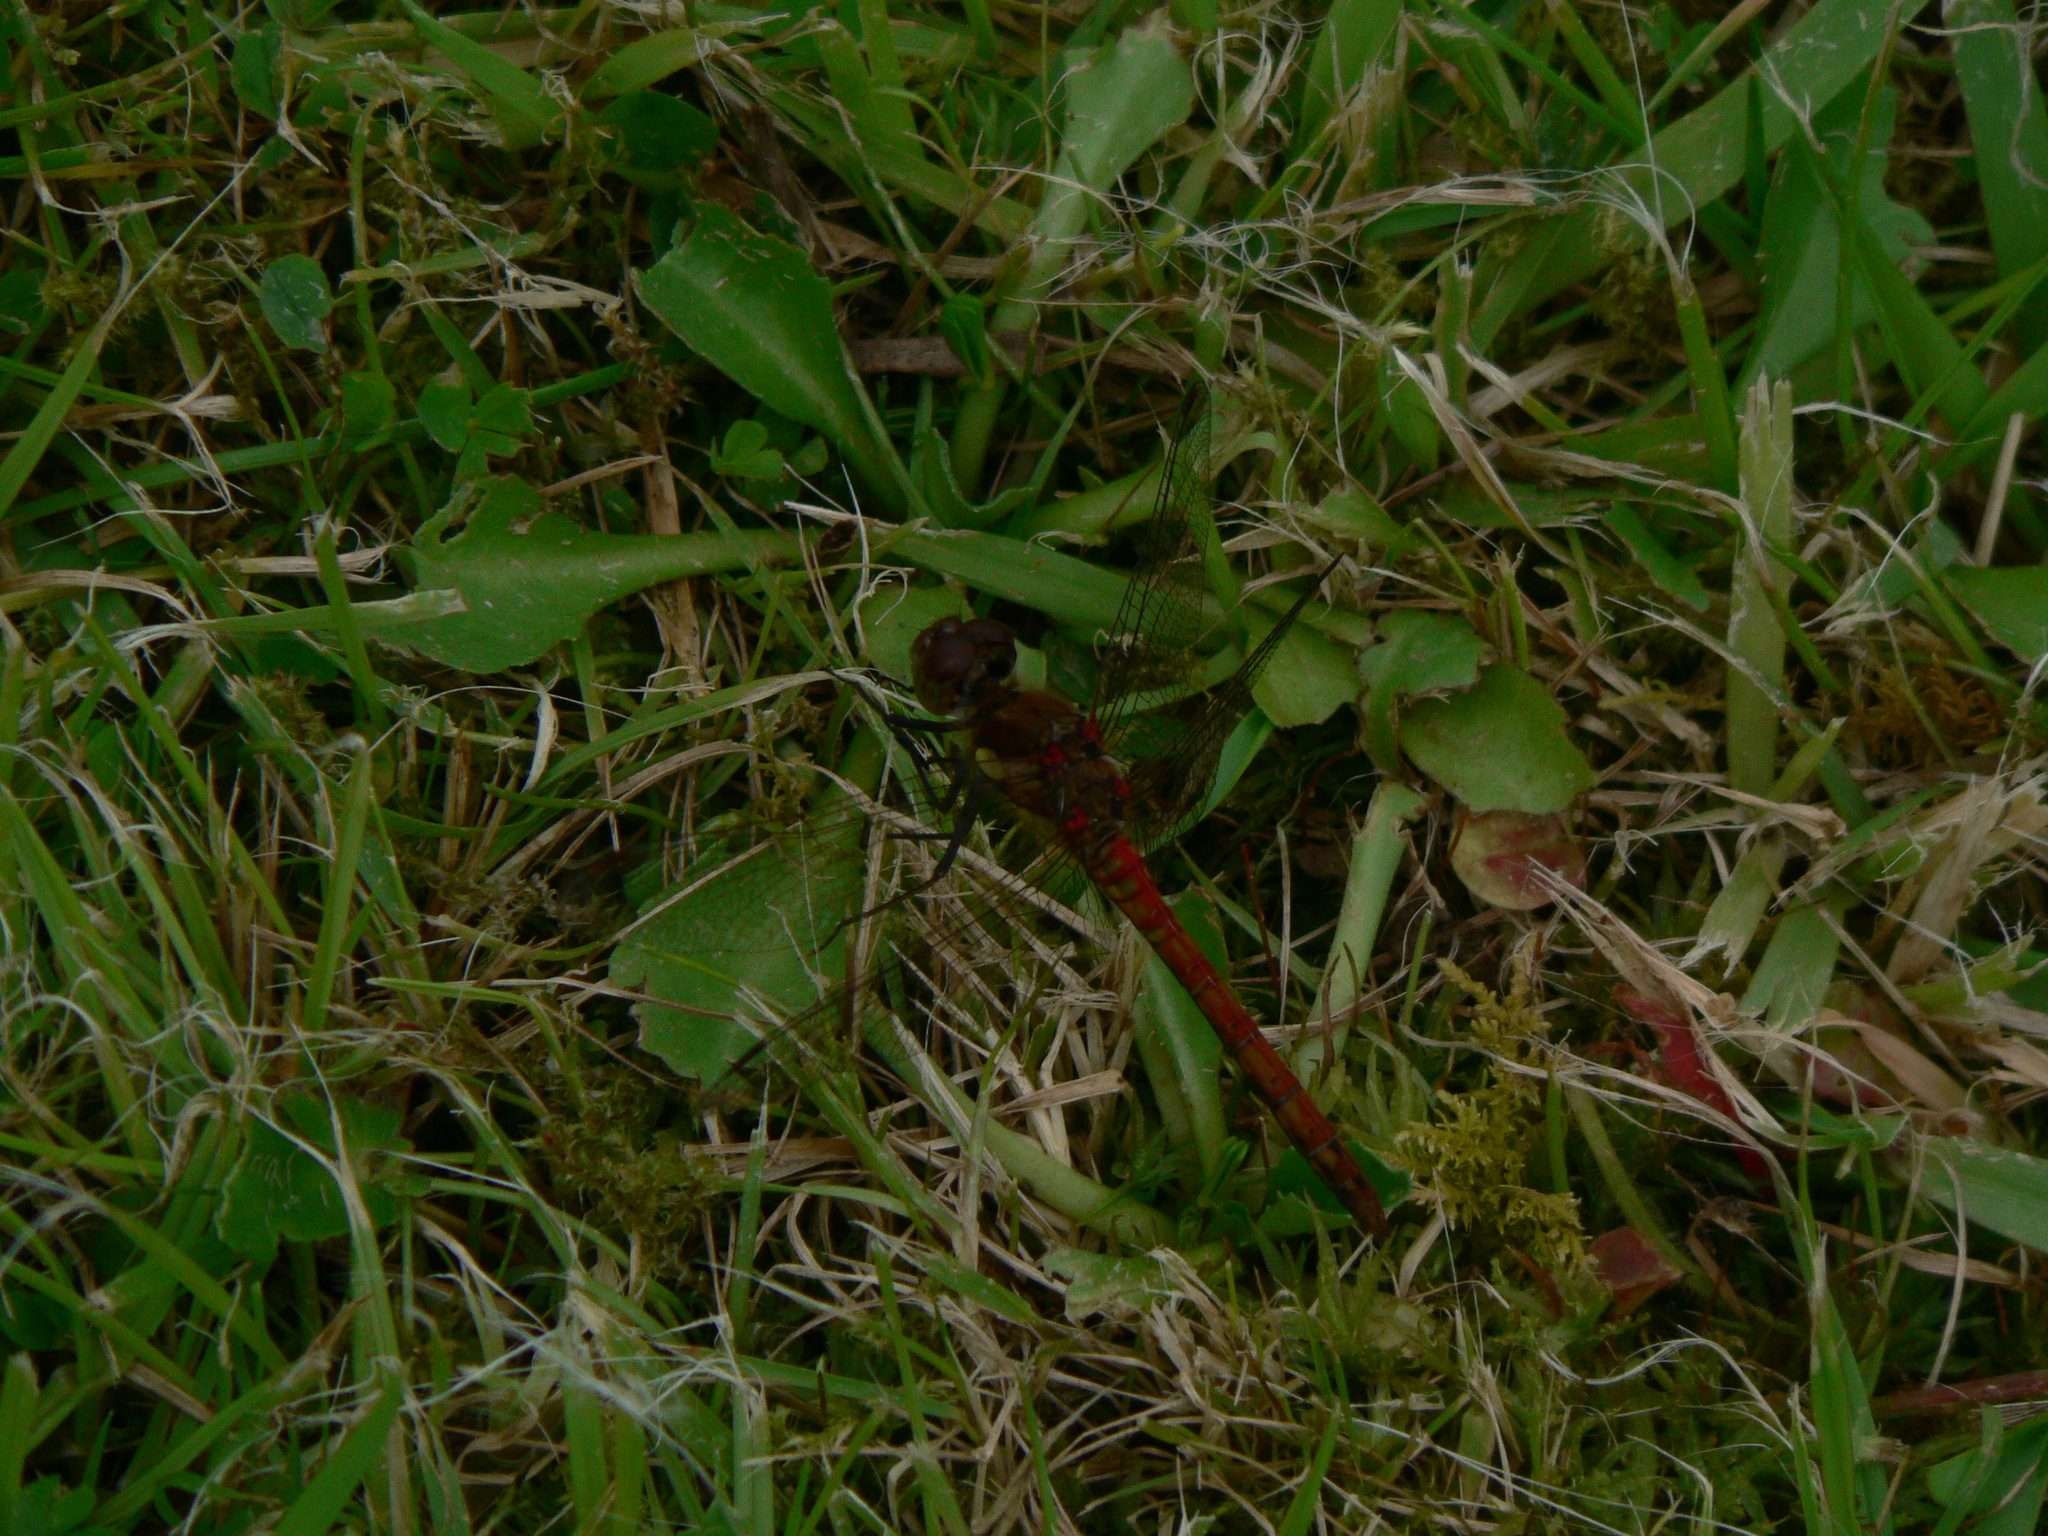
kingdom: Animalia
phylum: Arthropoda
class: Insecta
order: Odonata
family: Libellulidae
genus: Sympetrum
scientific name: Sympetrum striolatum
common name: Common darter
